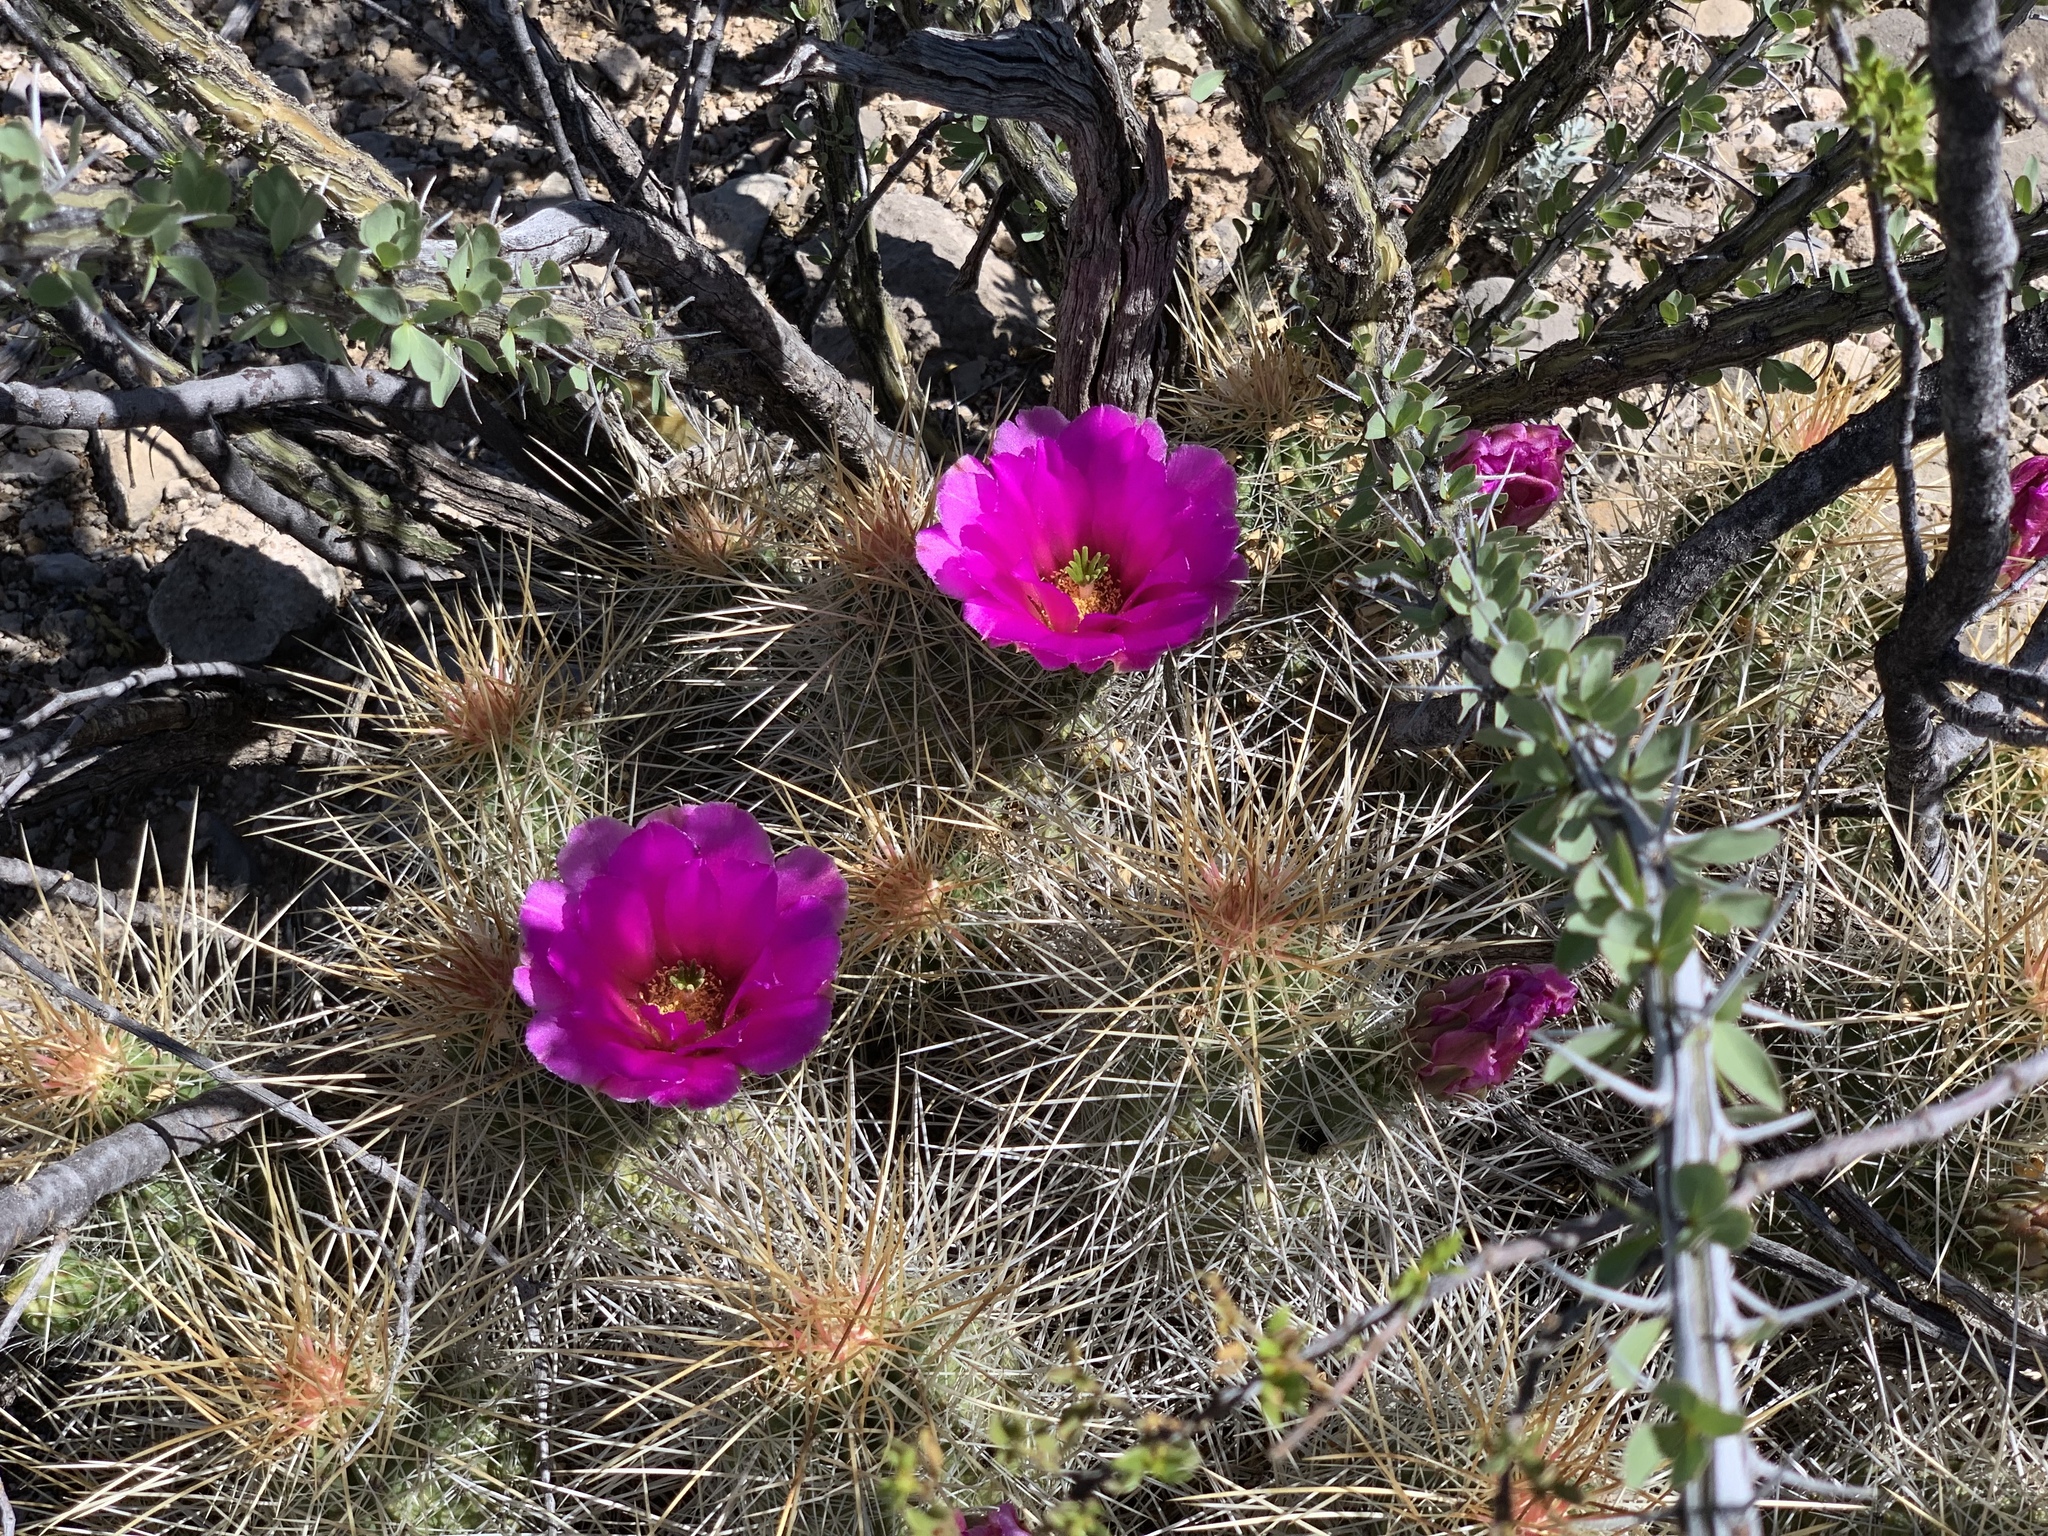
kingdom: Plantae
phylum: Tracheophyta
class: Magnoliopsida
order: Caryophyllales
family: Cactaceae
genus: Echinocereus
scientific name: Echinocereus stramineus
